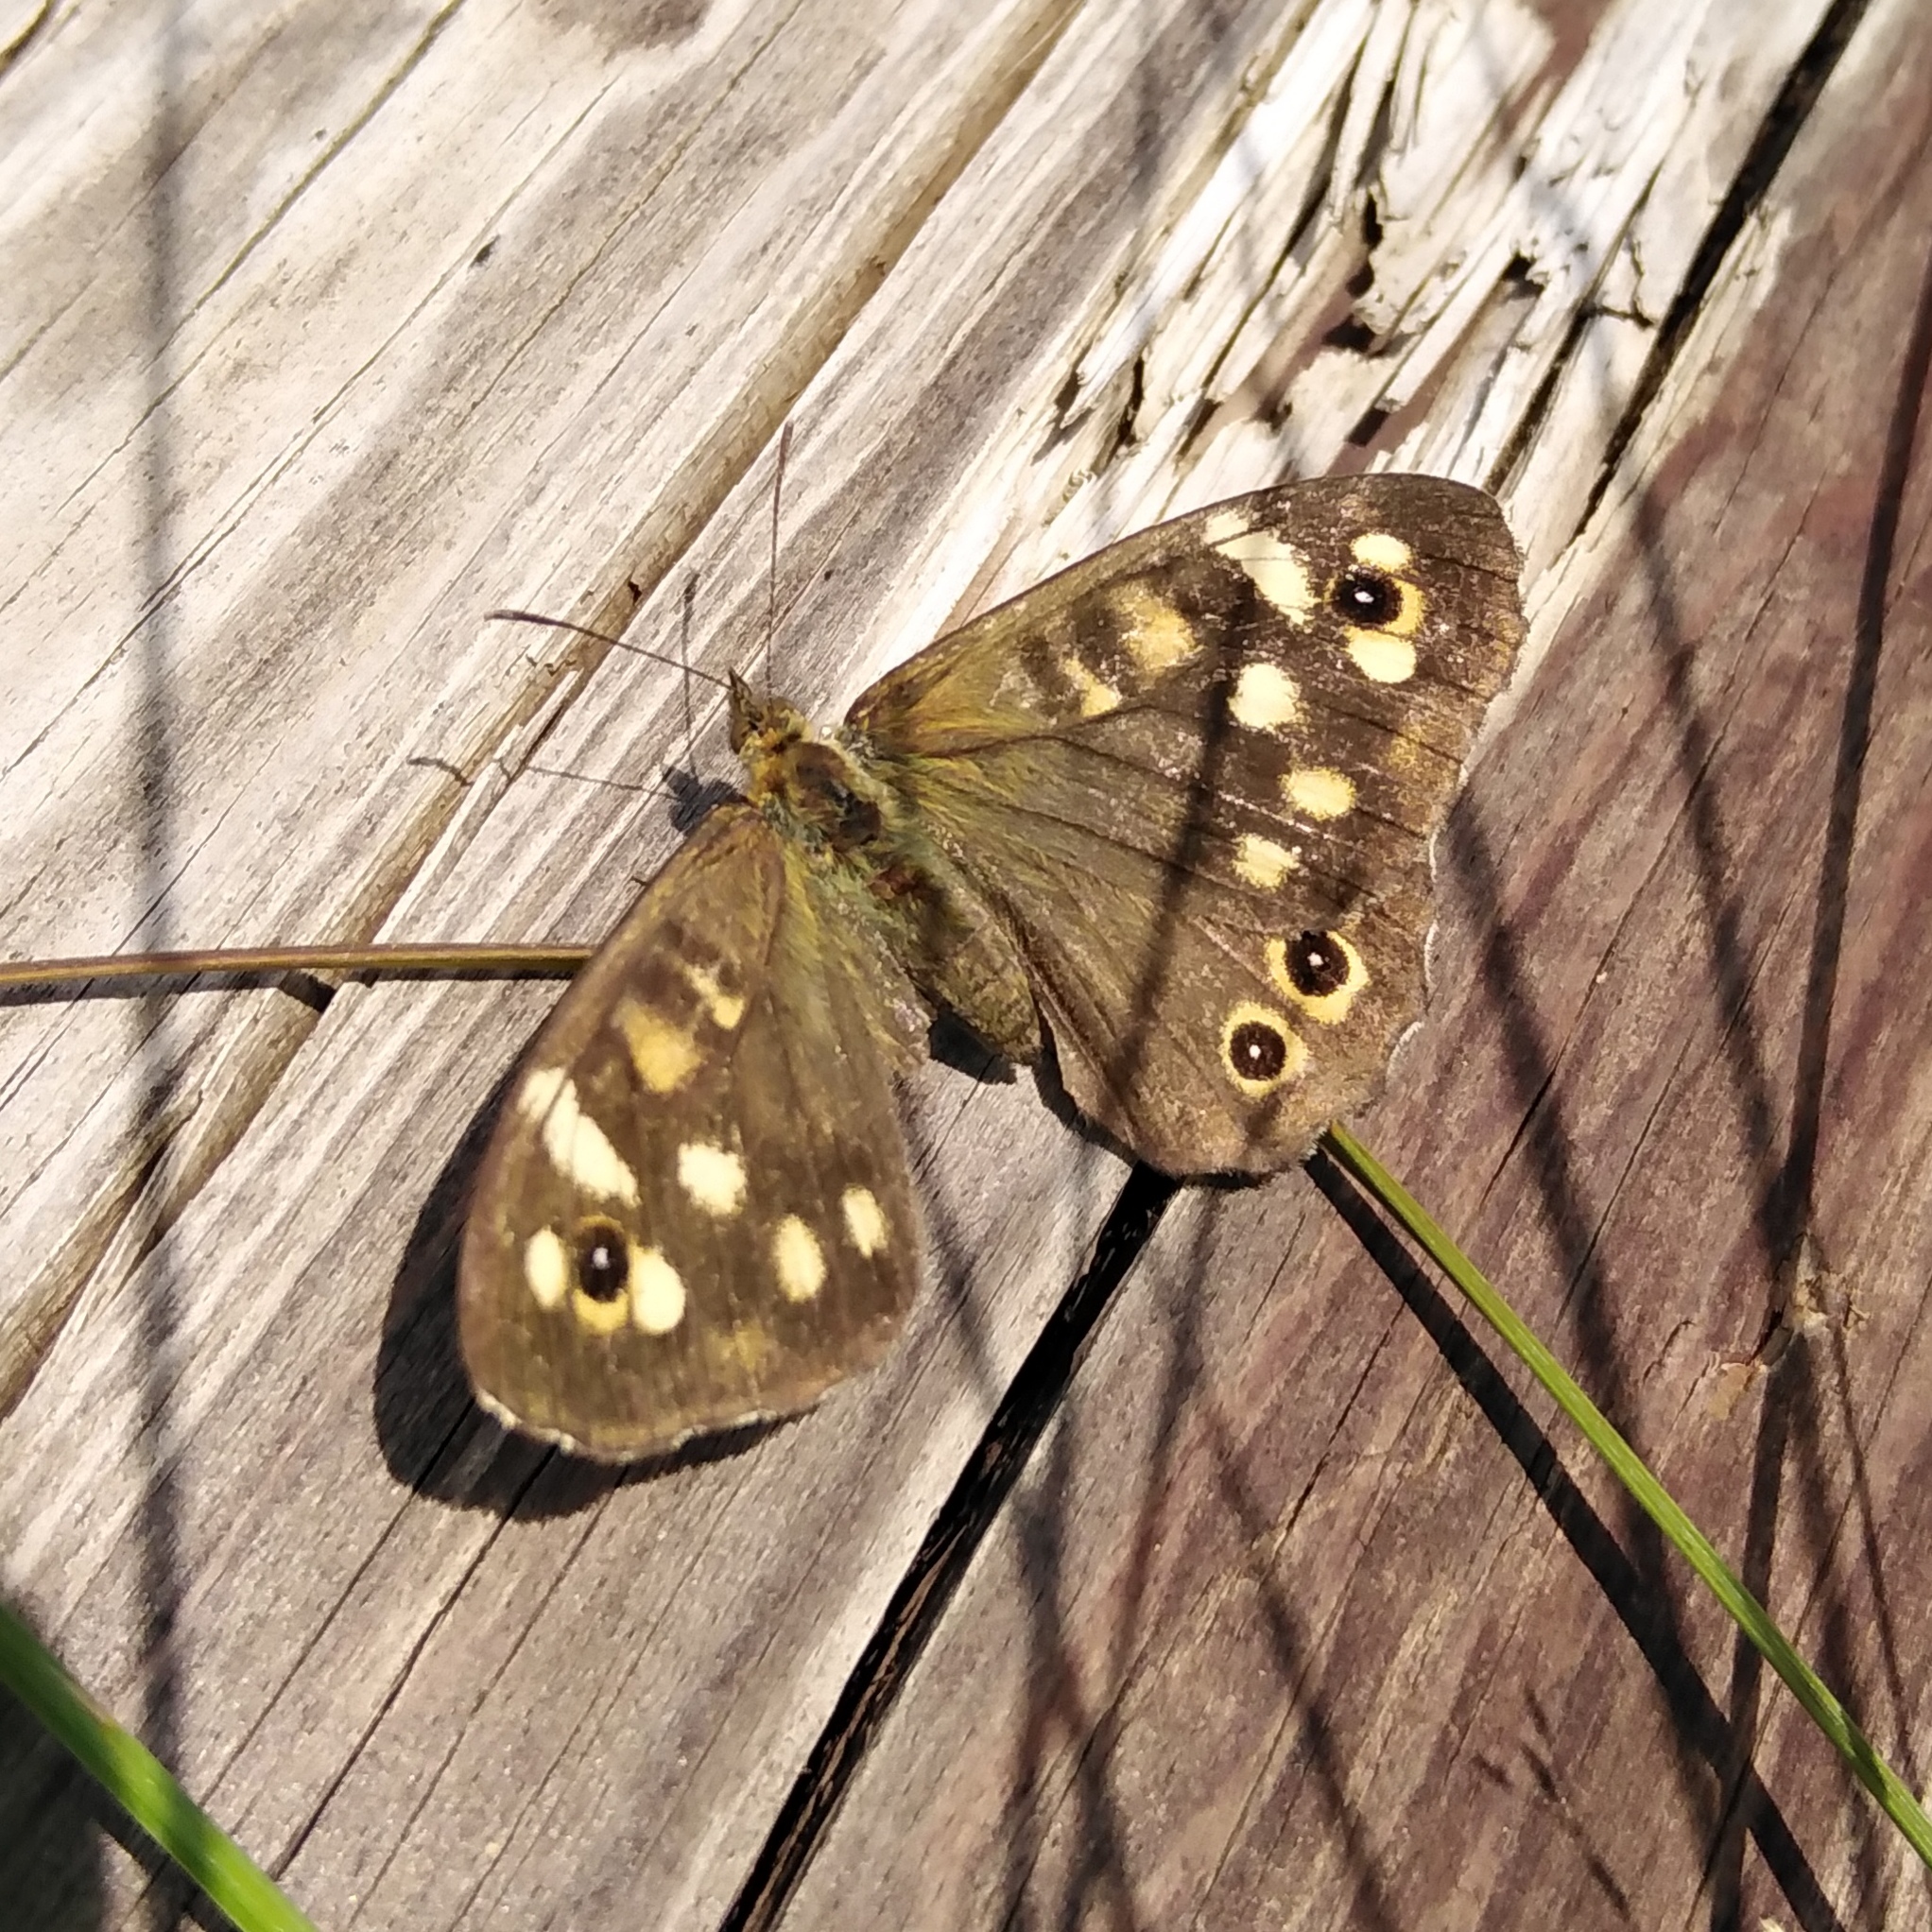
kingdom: Animalia
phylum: Arthropoda
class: Insecta
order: Lepidoptera
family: Nymphalidae
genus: Pararge
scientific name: Pararge aegeria
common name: Speckled wood
